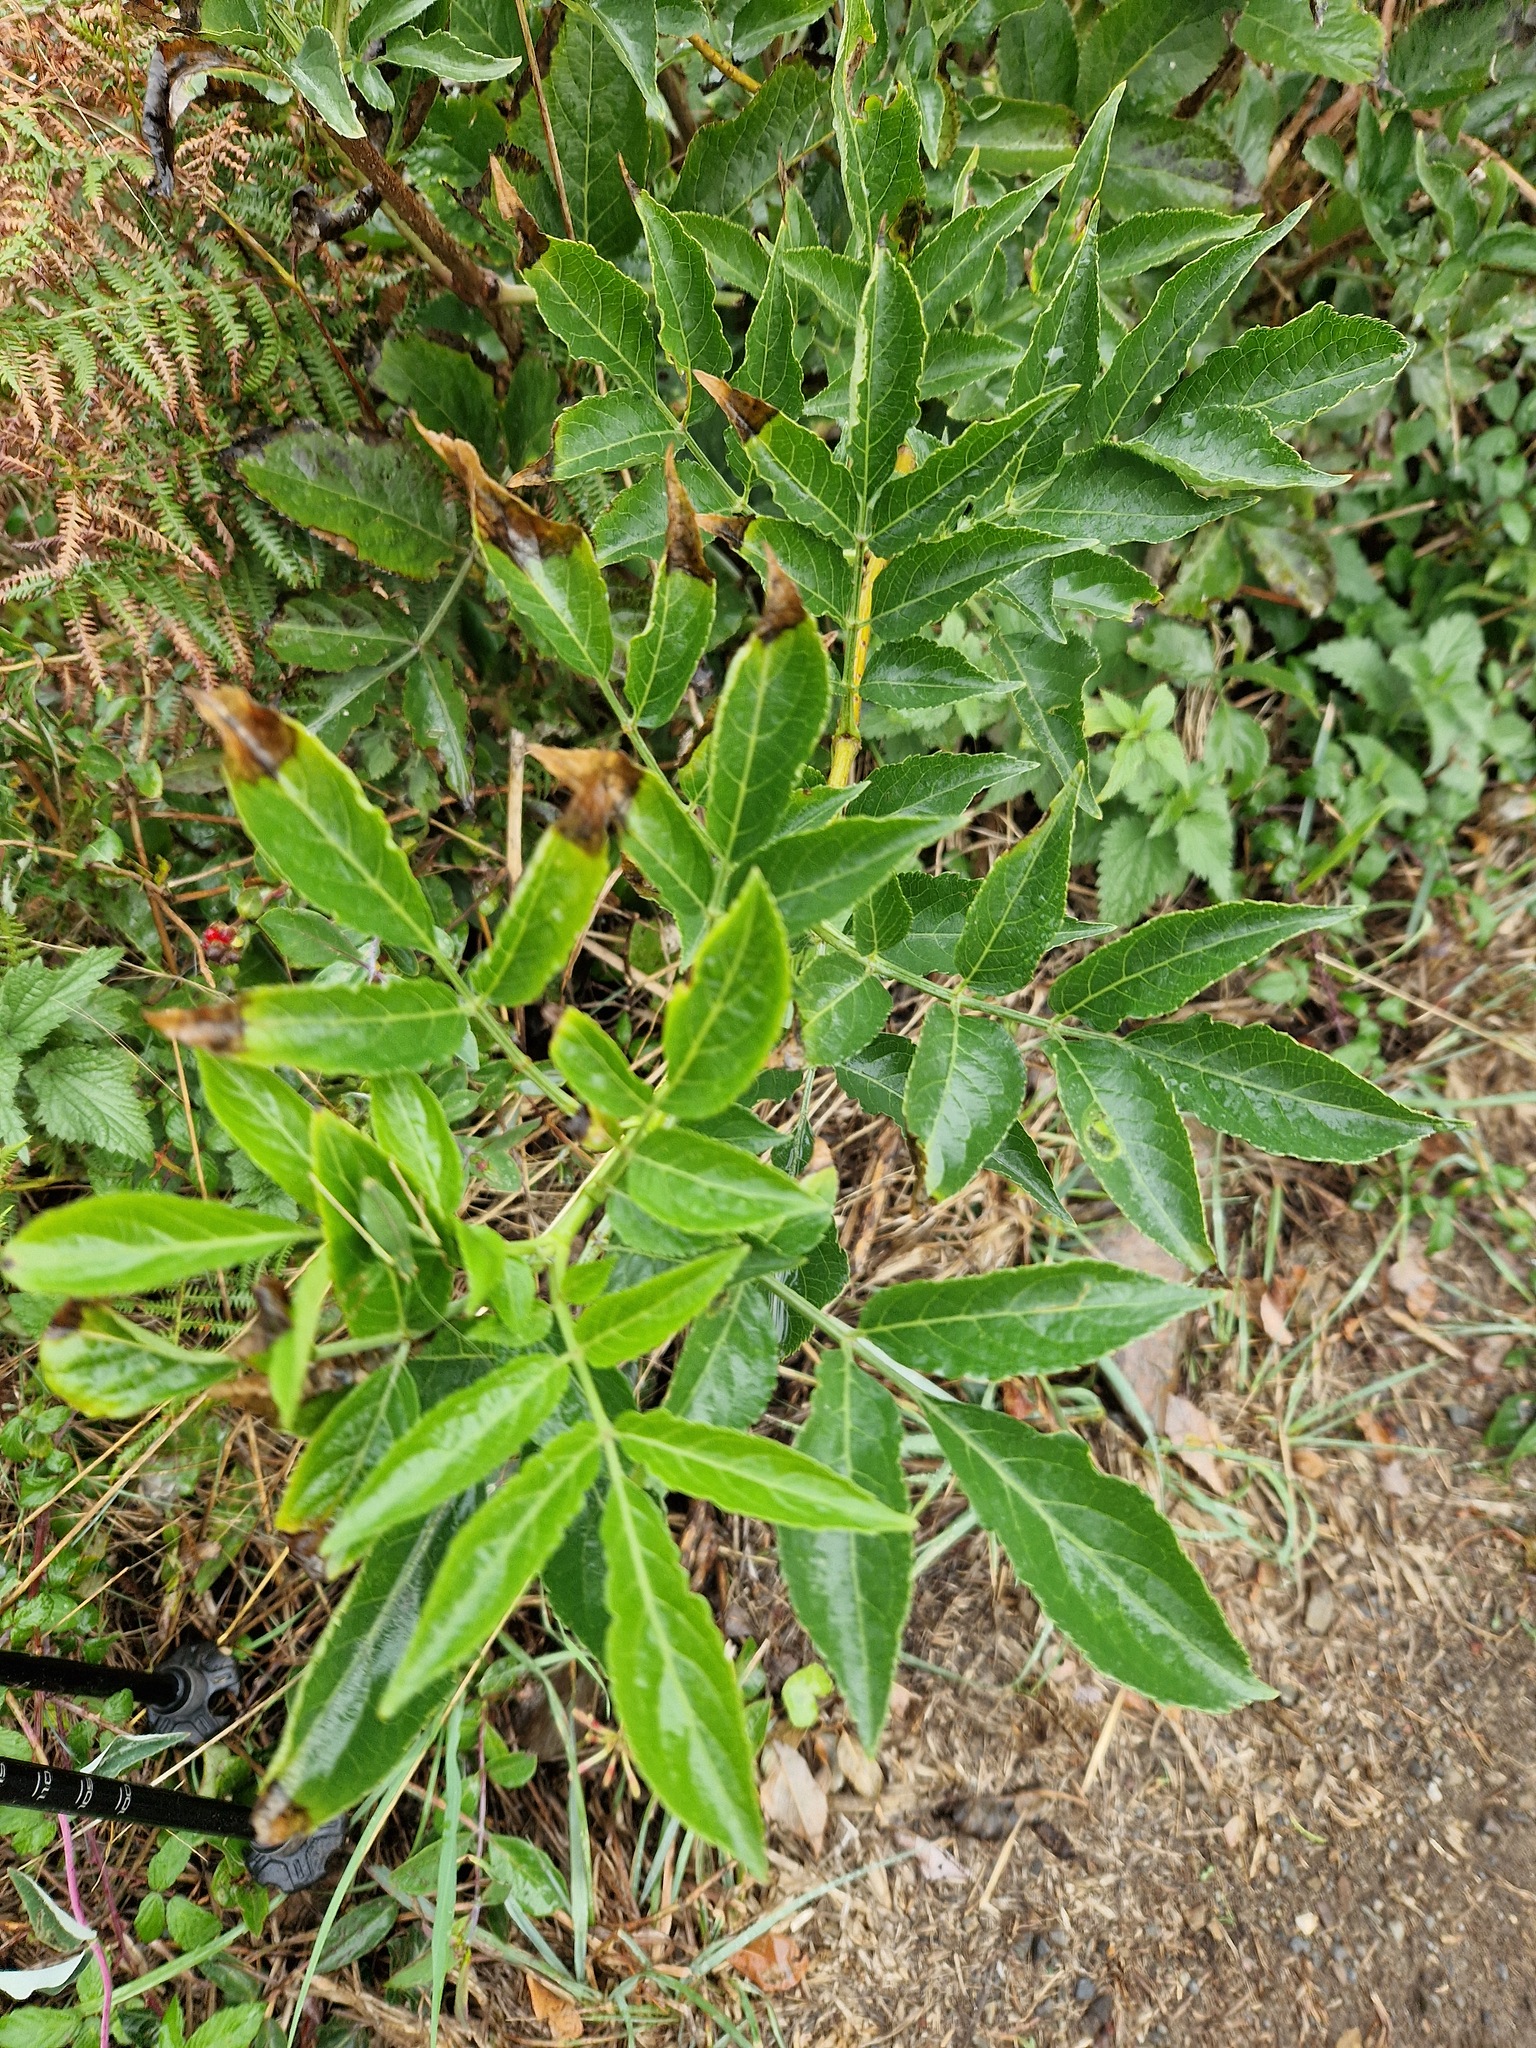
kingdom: Plantae
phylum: Tracheophyta
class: Magnoliopsida
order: Dipsacales
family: Viburnaceae
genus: Sambucus
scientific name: Sambucus nigra
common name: Elder
